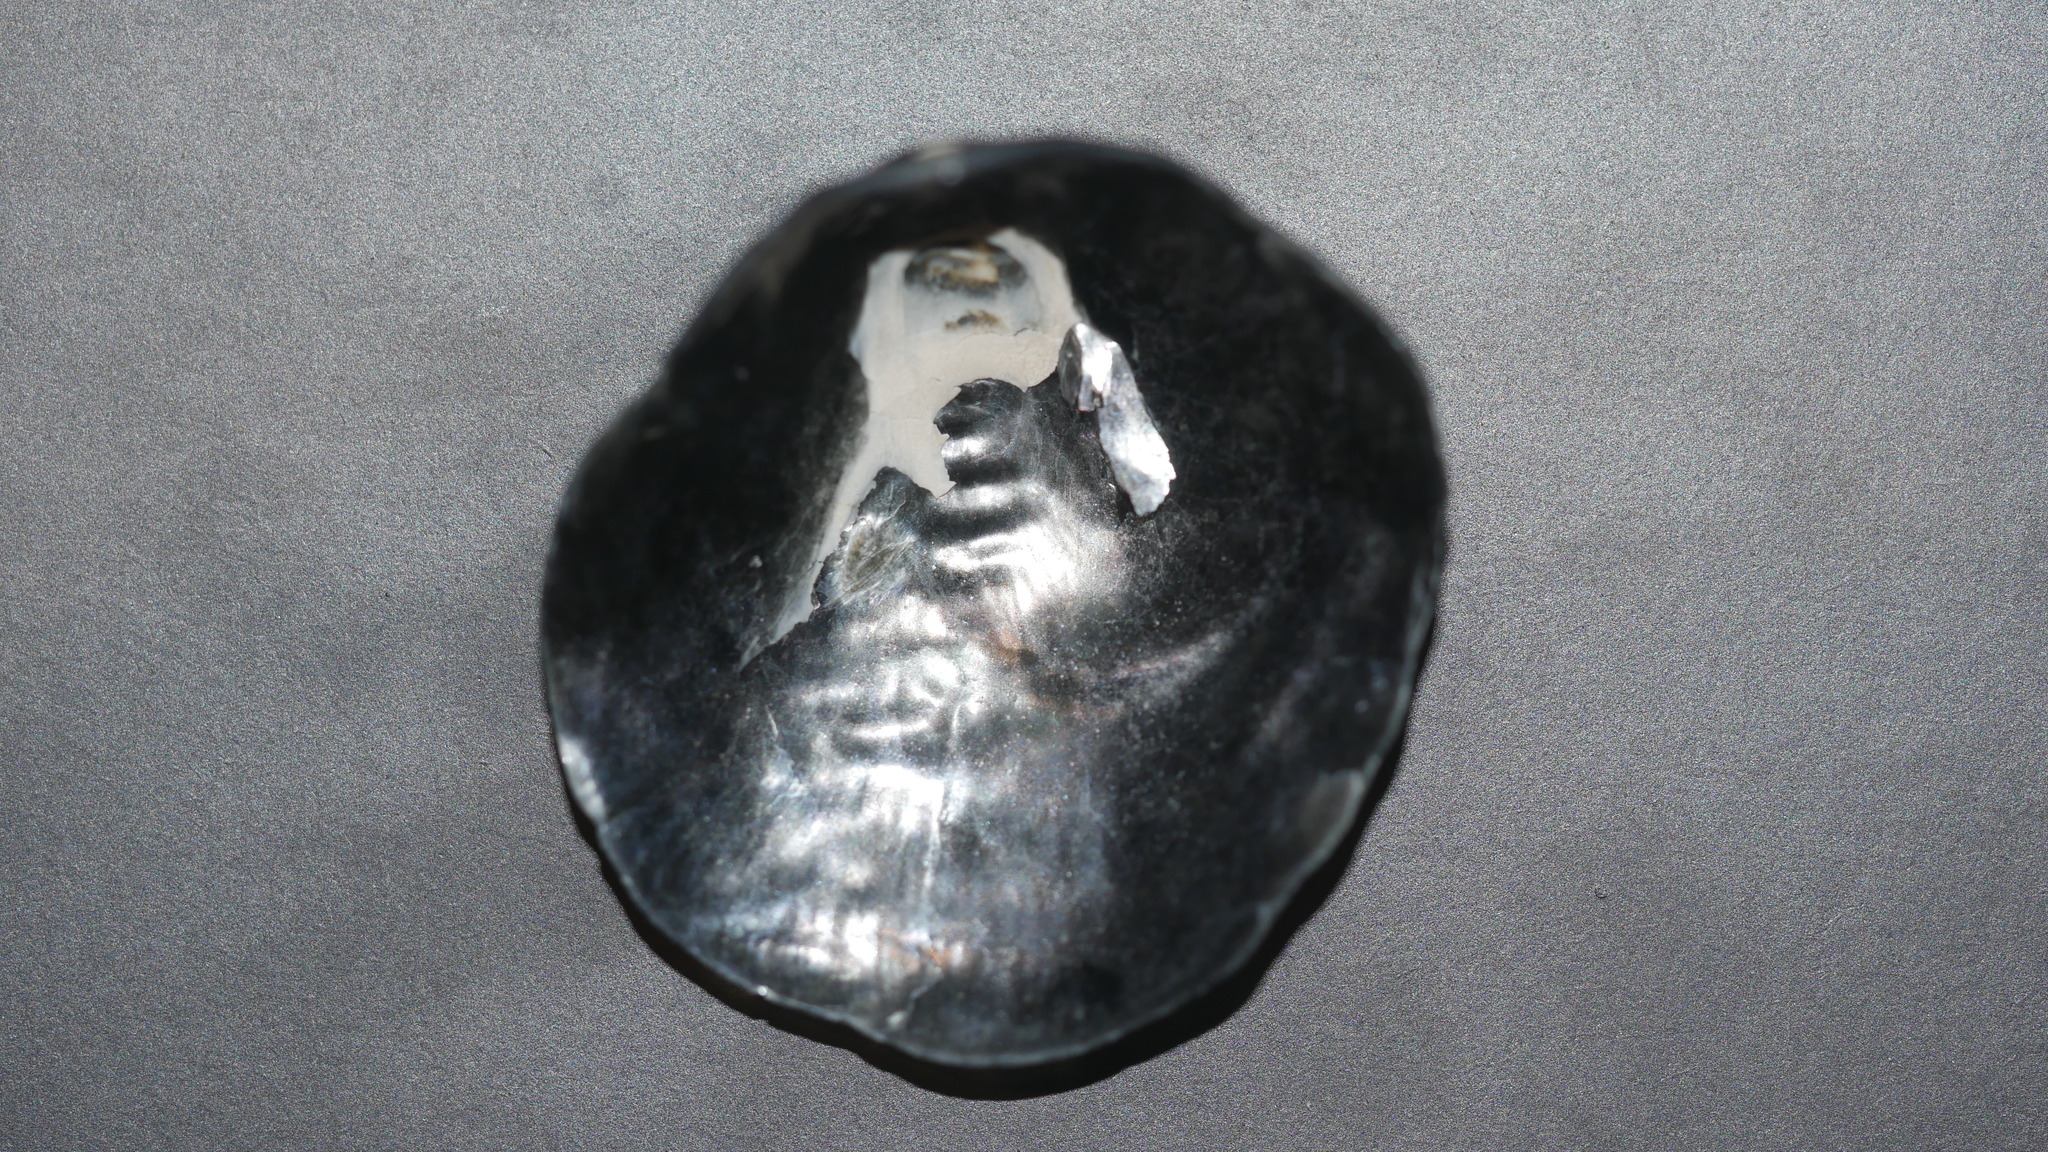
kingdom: Animalia
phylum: Mollusca
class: Bivalvia
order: Pectinida
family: Anomiidae
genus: Anomia
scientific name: Anomia simplex
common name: Common jingle shell
